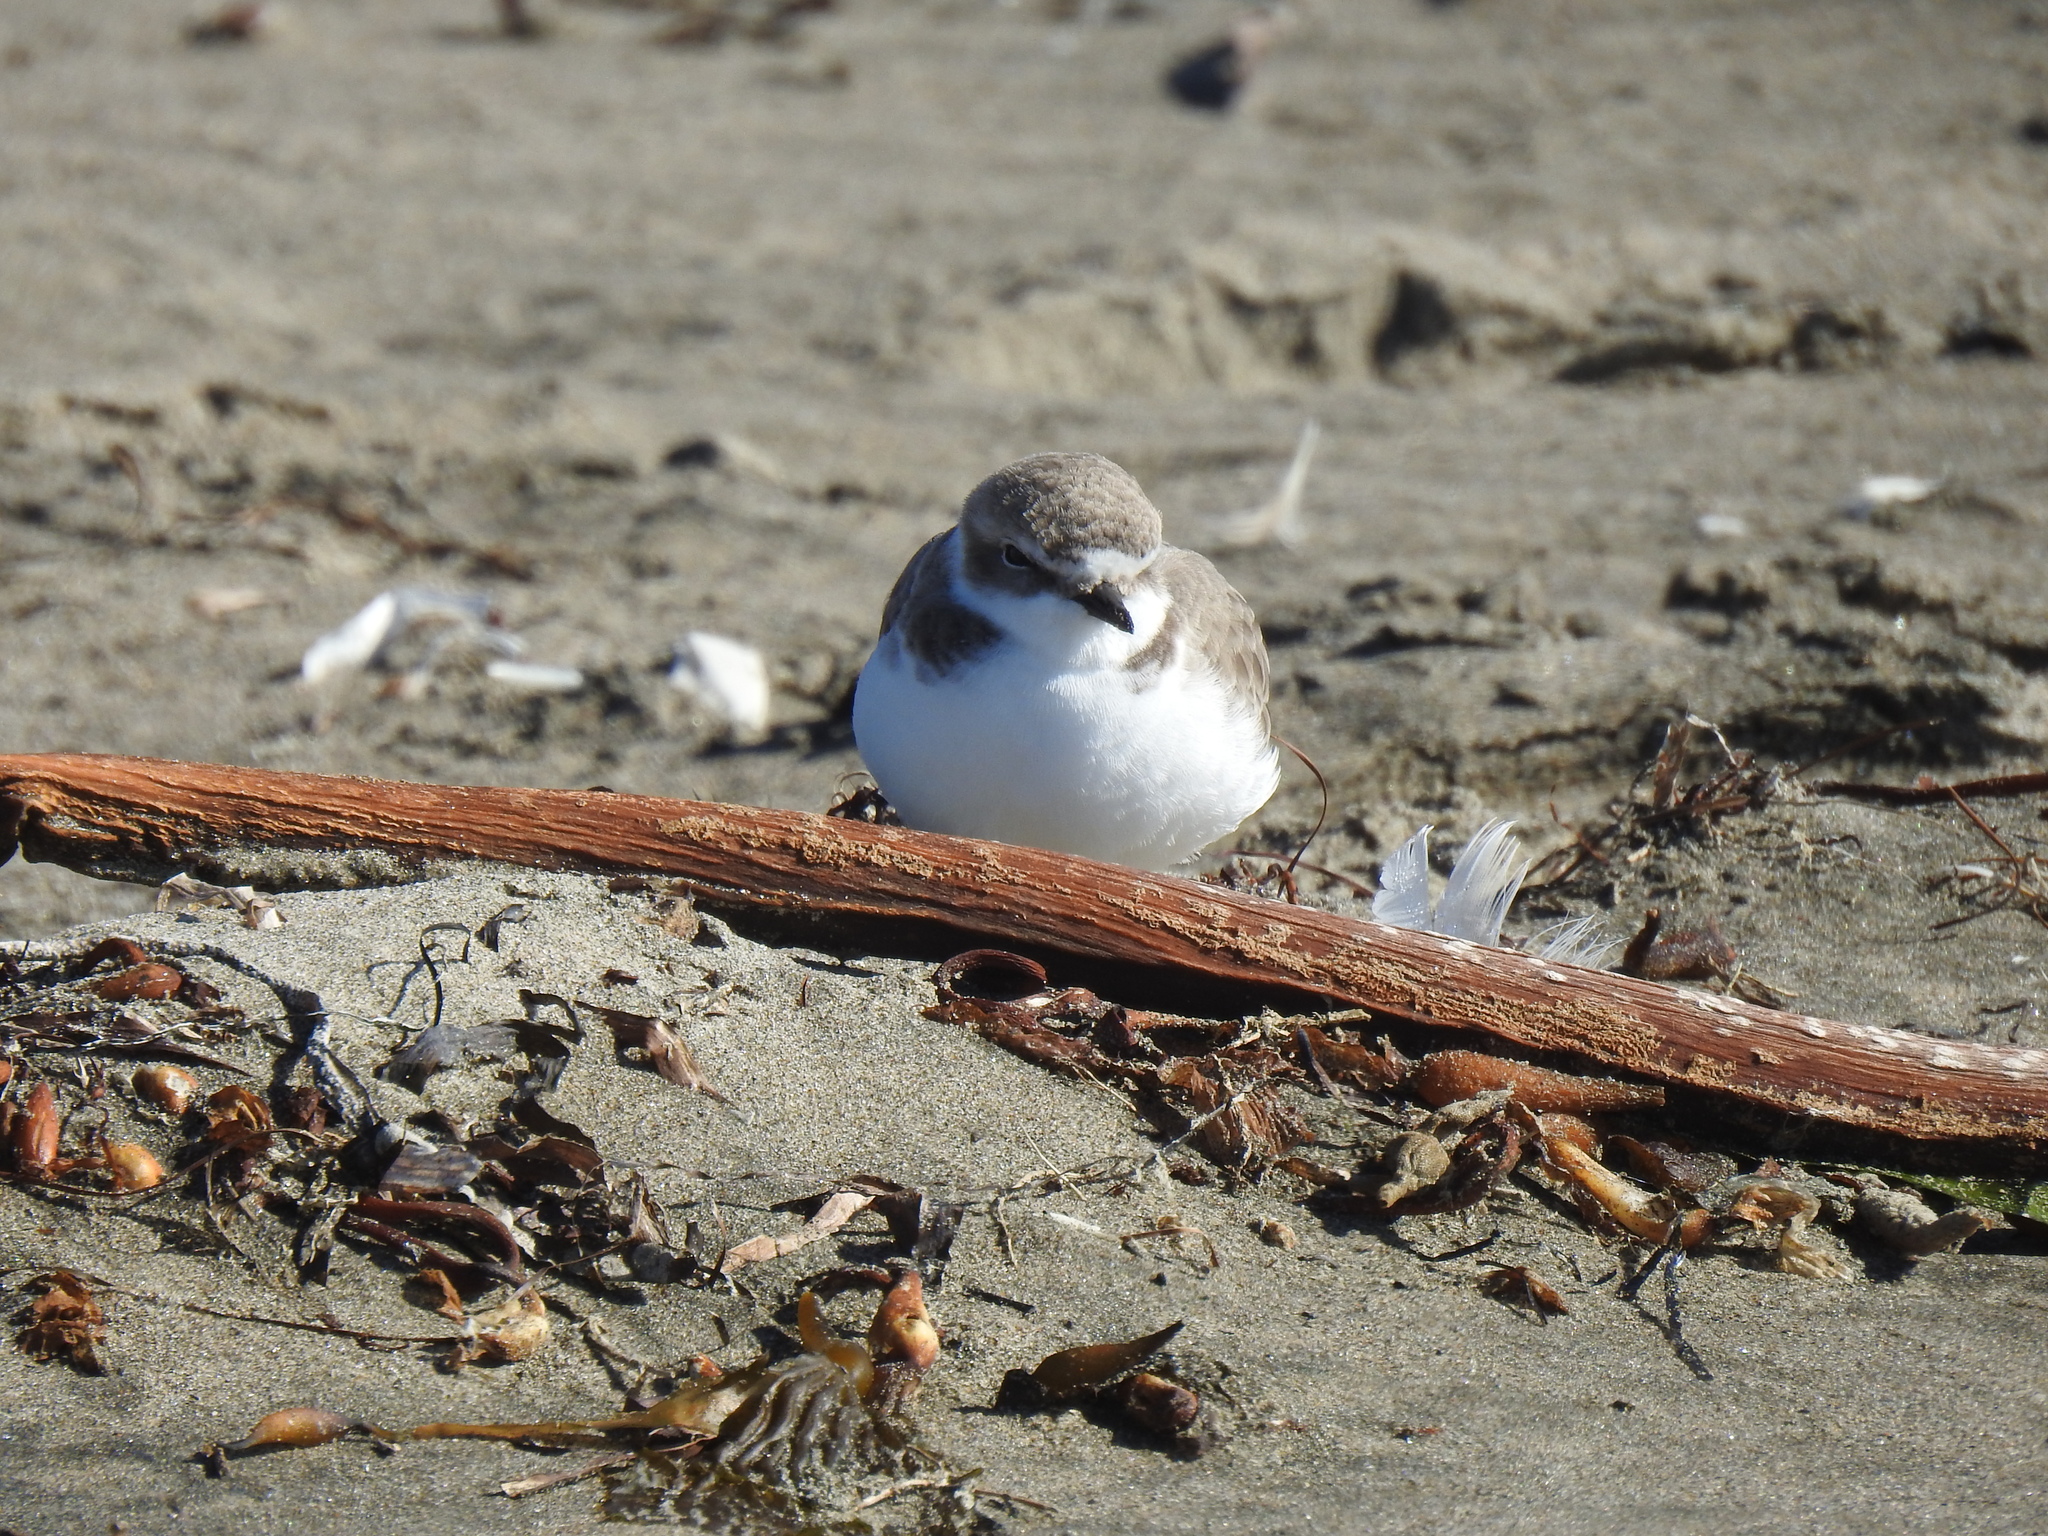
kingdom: Animalia
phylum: Chordata
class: Aves
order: Charadriiformes
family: Charadriidae
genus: Anarhynchus
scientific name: Anarhynchus
